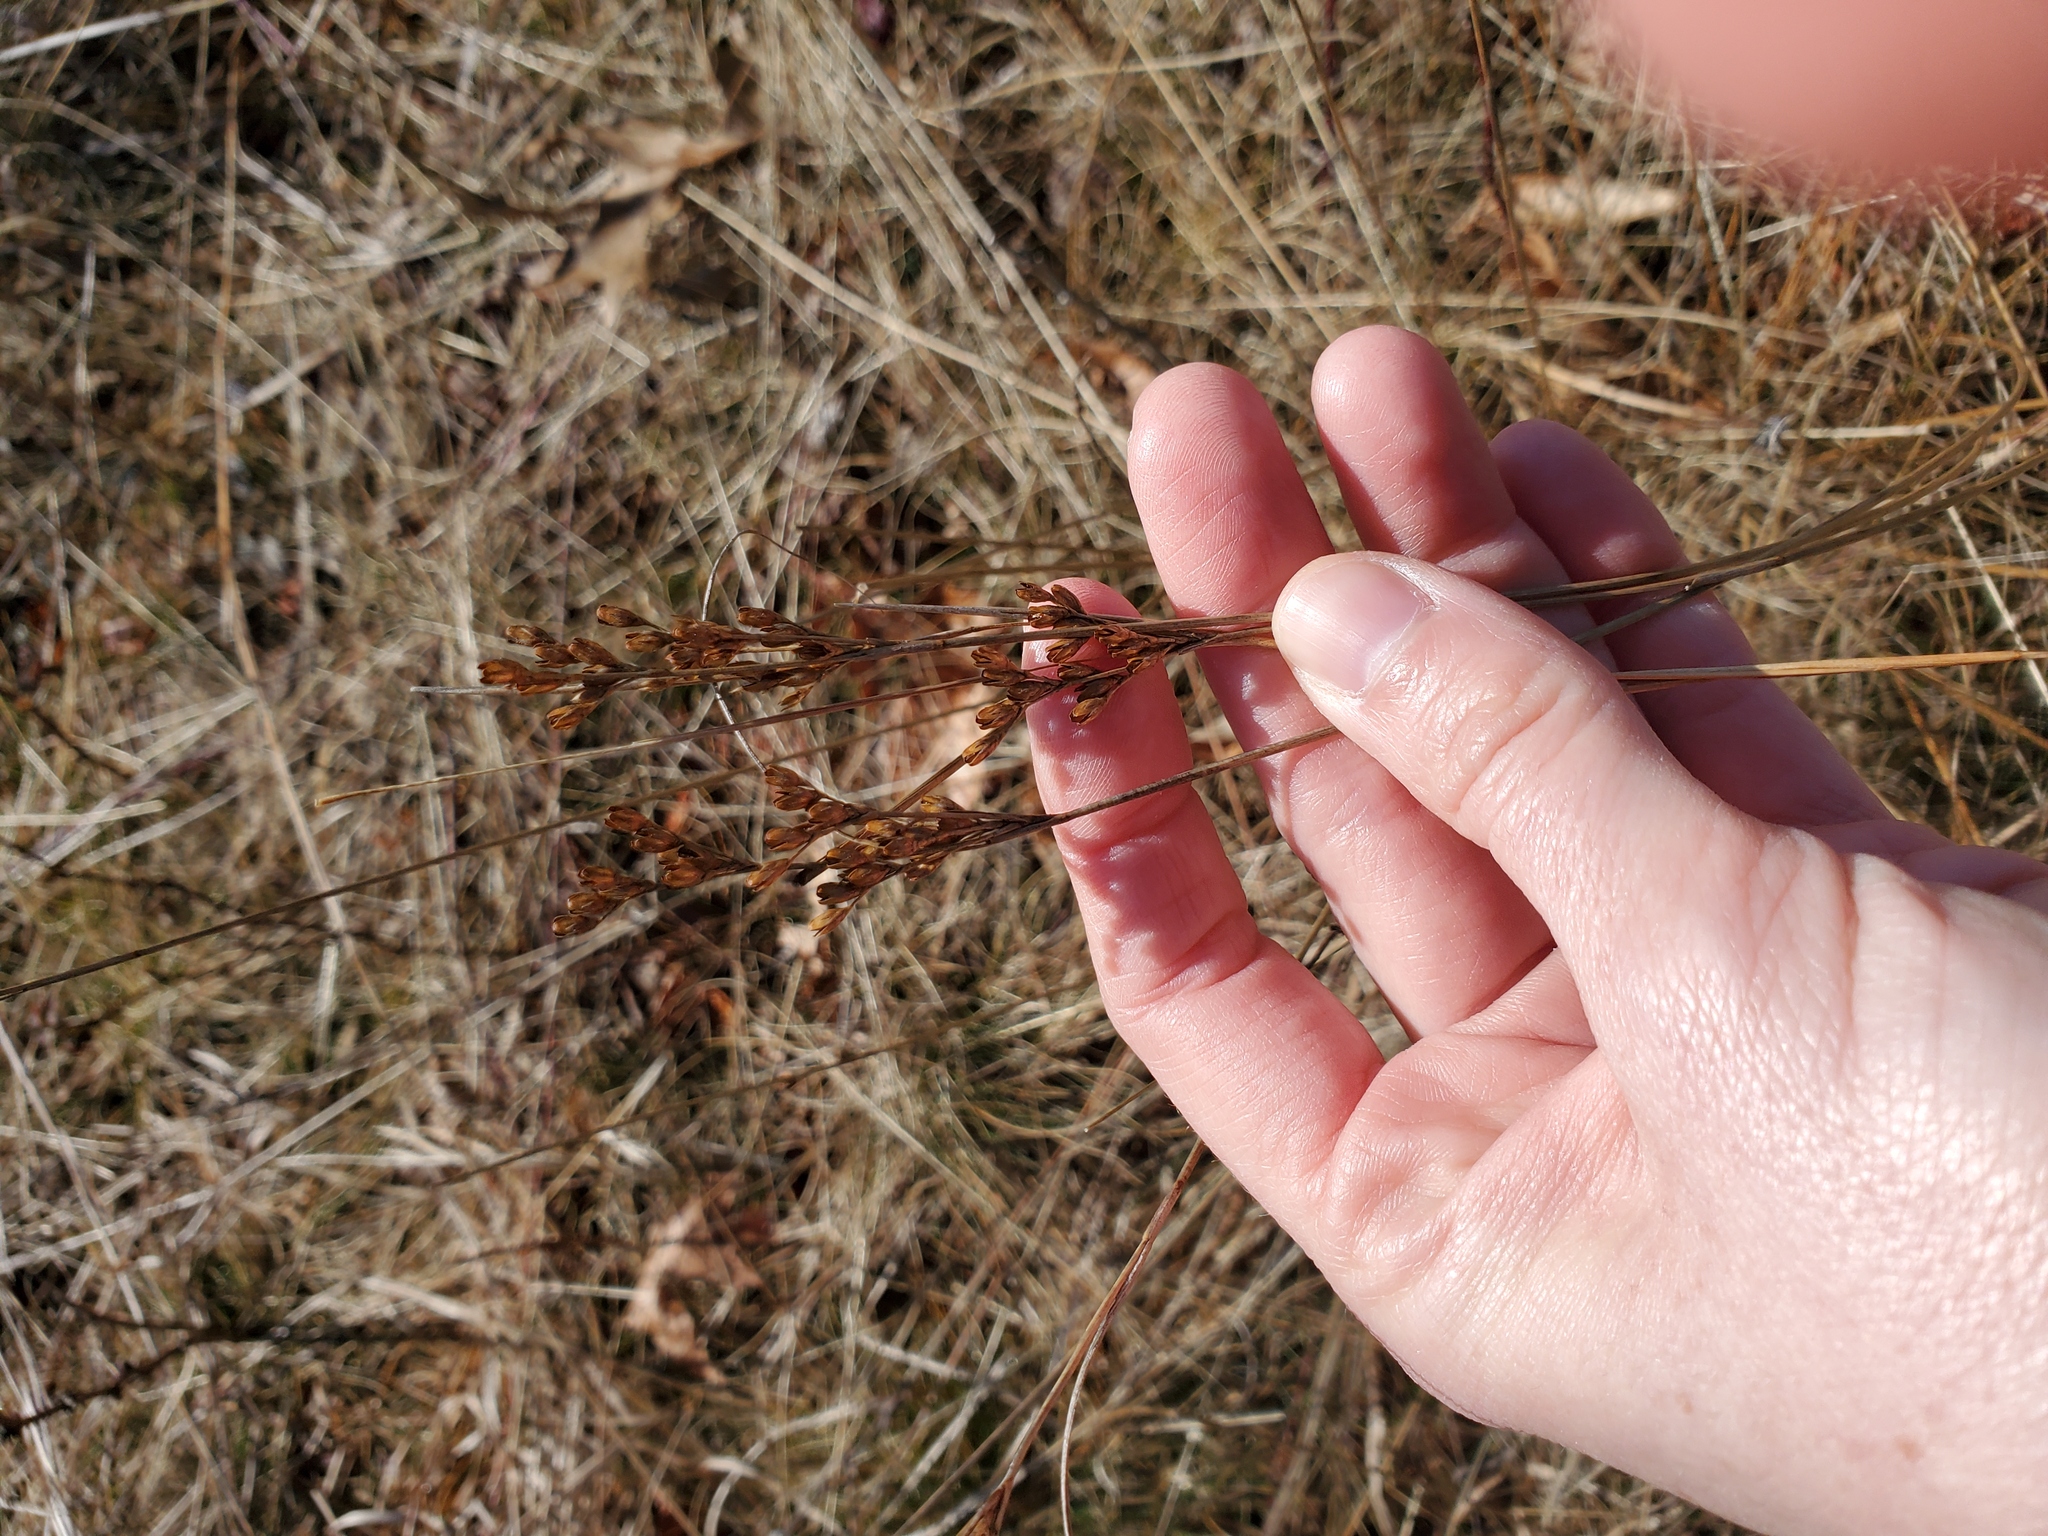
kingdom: Plantae
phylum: Tracheophyta
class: Liliopsida
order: Poales
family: Juncaceae
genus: Juncus
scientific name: Juncus greenei
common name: Greene's rush
